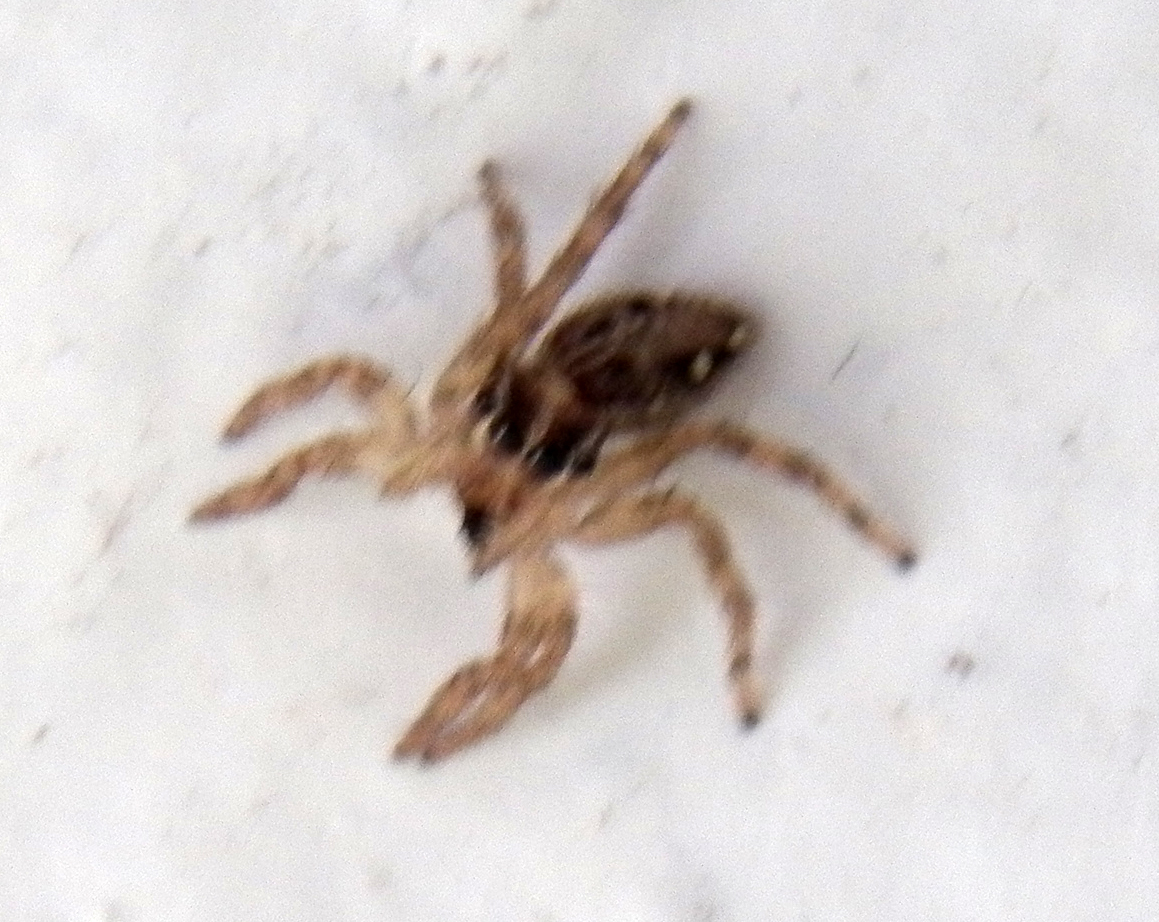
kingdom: Animalia
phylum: Arthropoda
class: Arachnida
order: Araneae
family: Salticidae
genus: Plexippus
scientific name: Plexippus paykulli
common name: Pantropical jumper
